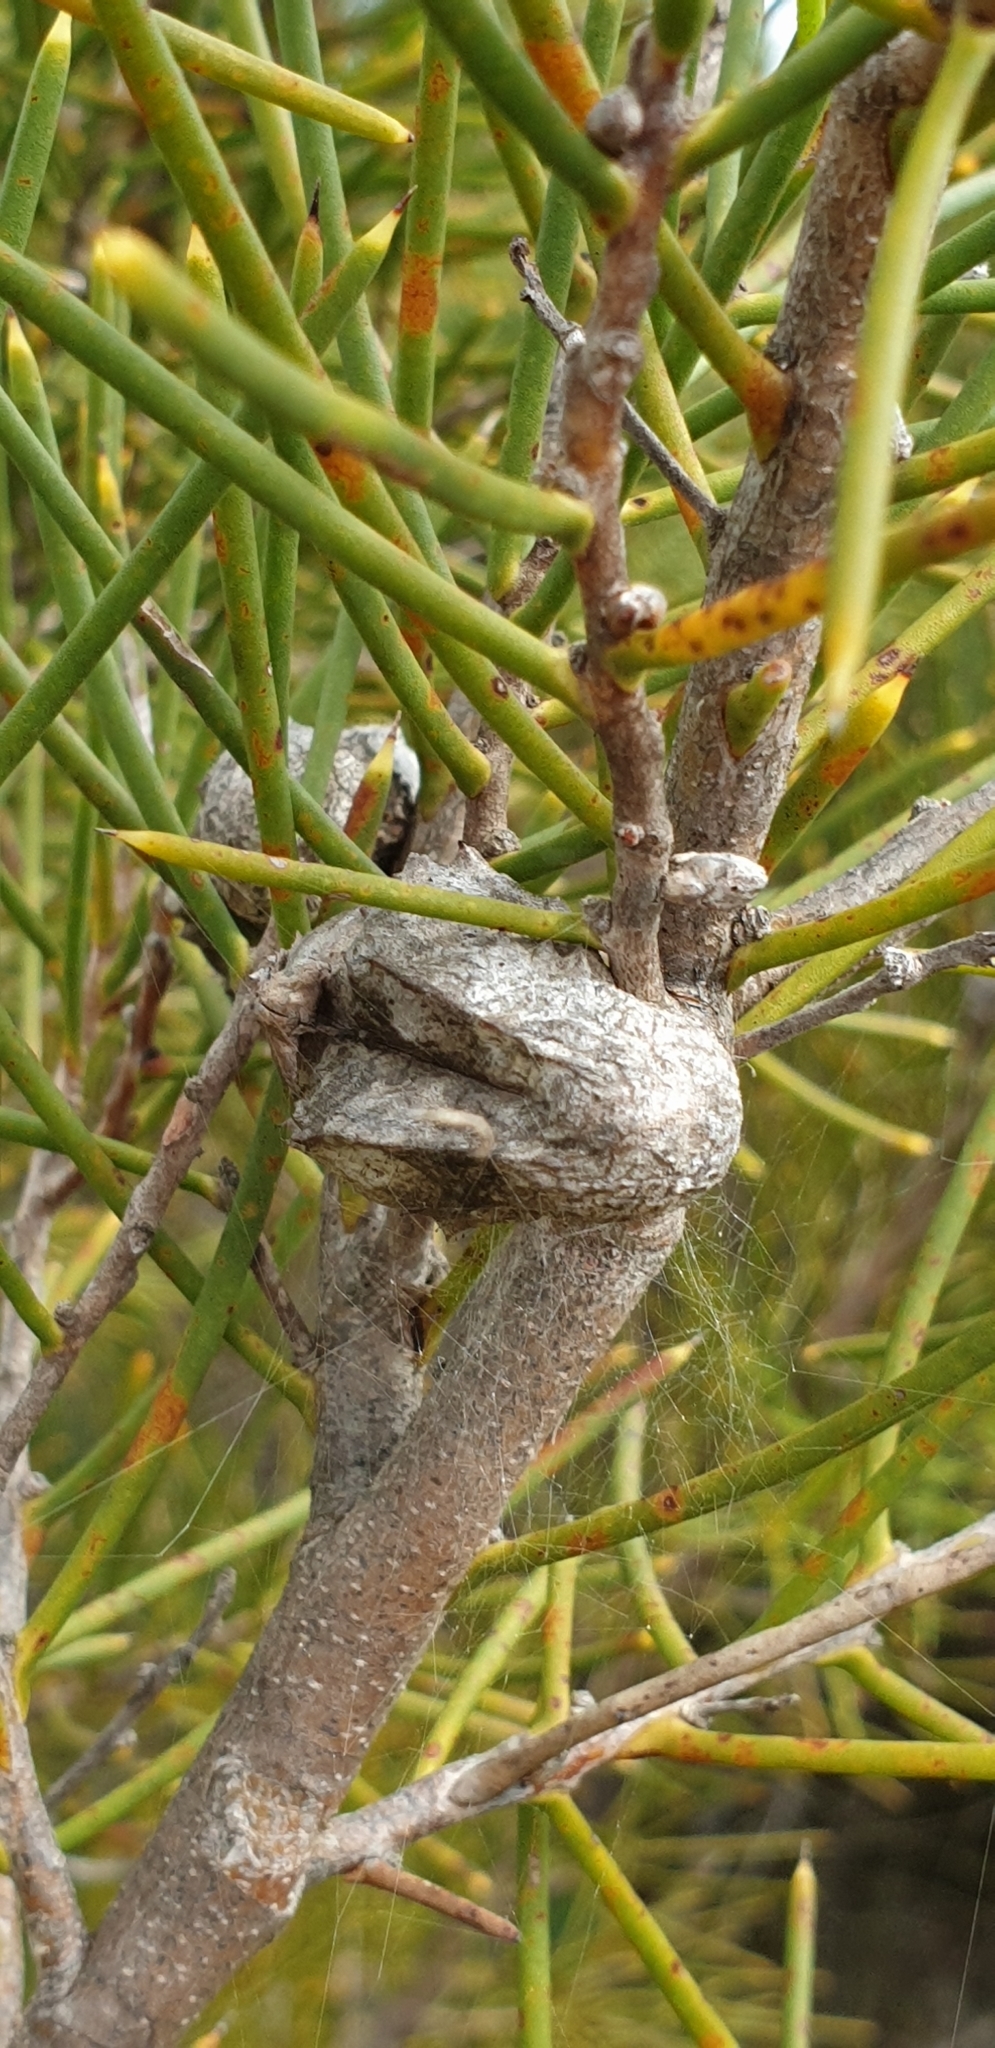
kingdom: Plantae
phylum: Tracheophyta
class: Magnoliopsida
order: Proteales
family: Proteaceae
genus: Hakea
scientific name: Hakea rugosa
